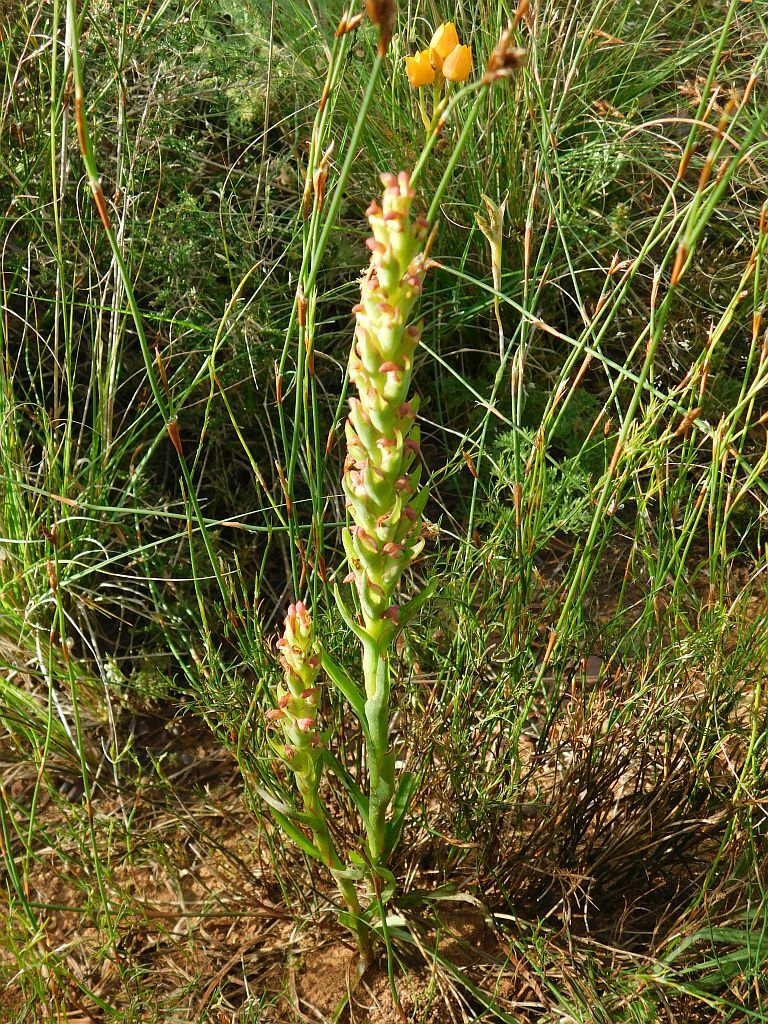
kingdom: Plantae
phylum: Tracheophyta
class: Liliopsida
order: Asparagales
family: Orchidaceae
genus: Disa
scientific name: Disa bracteata
